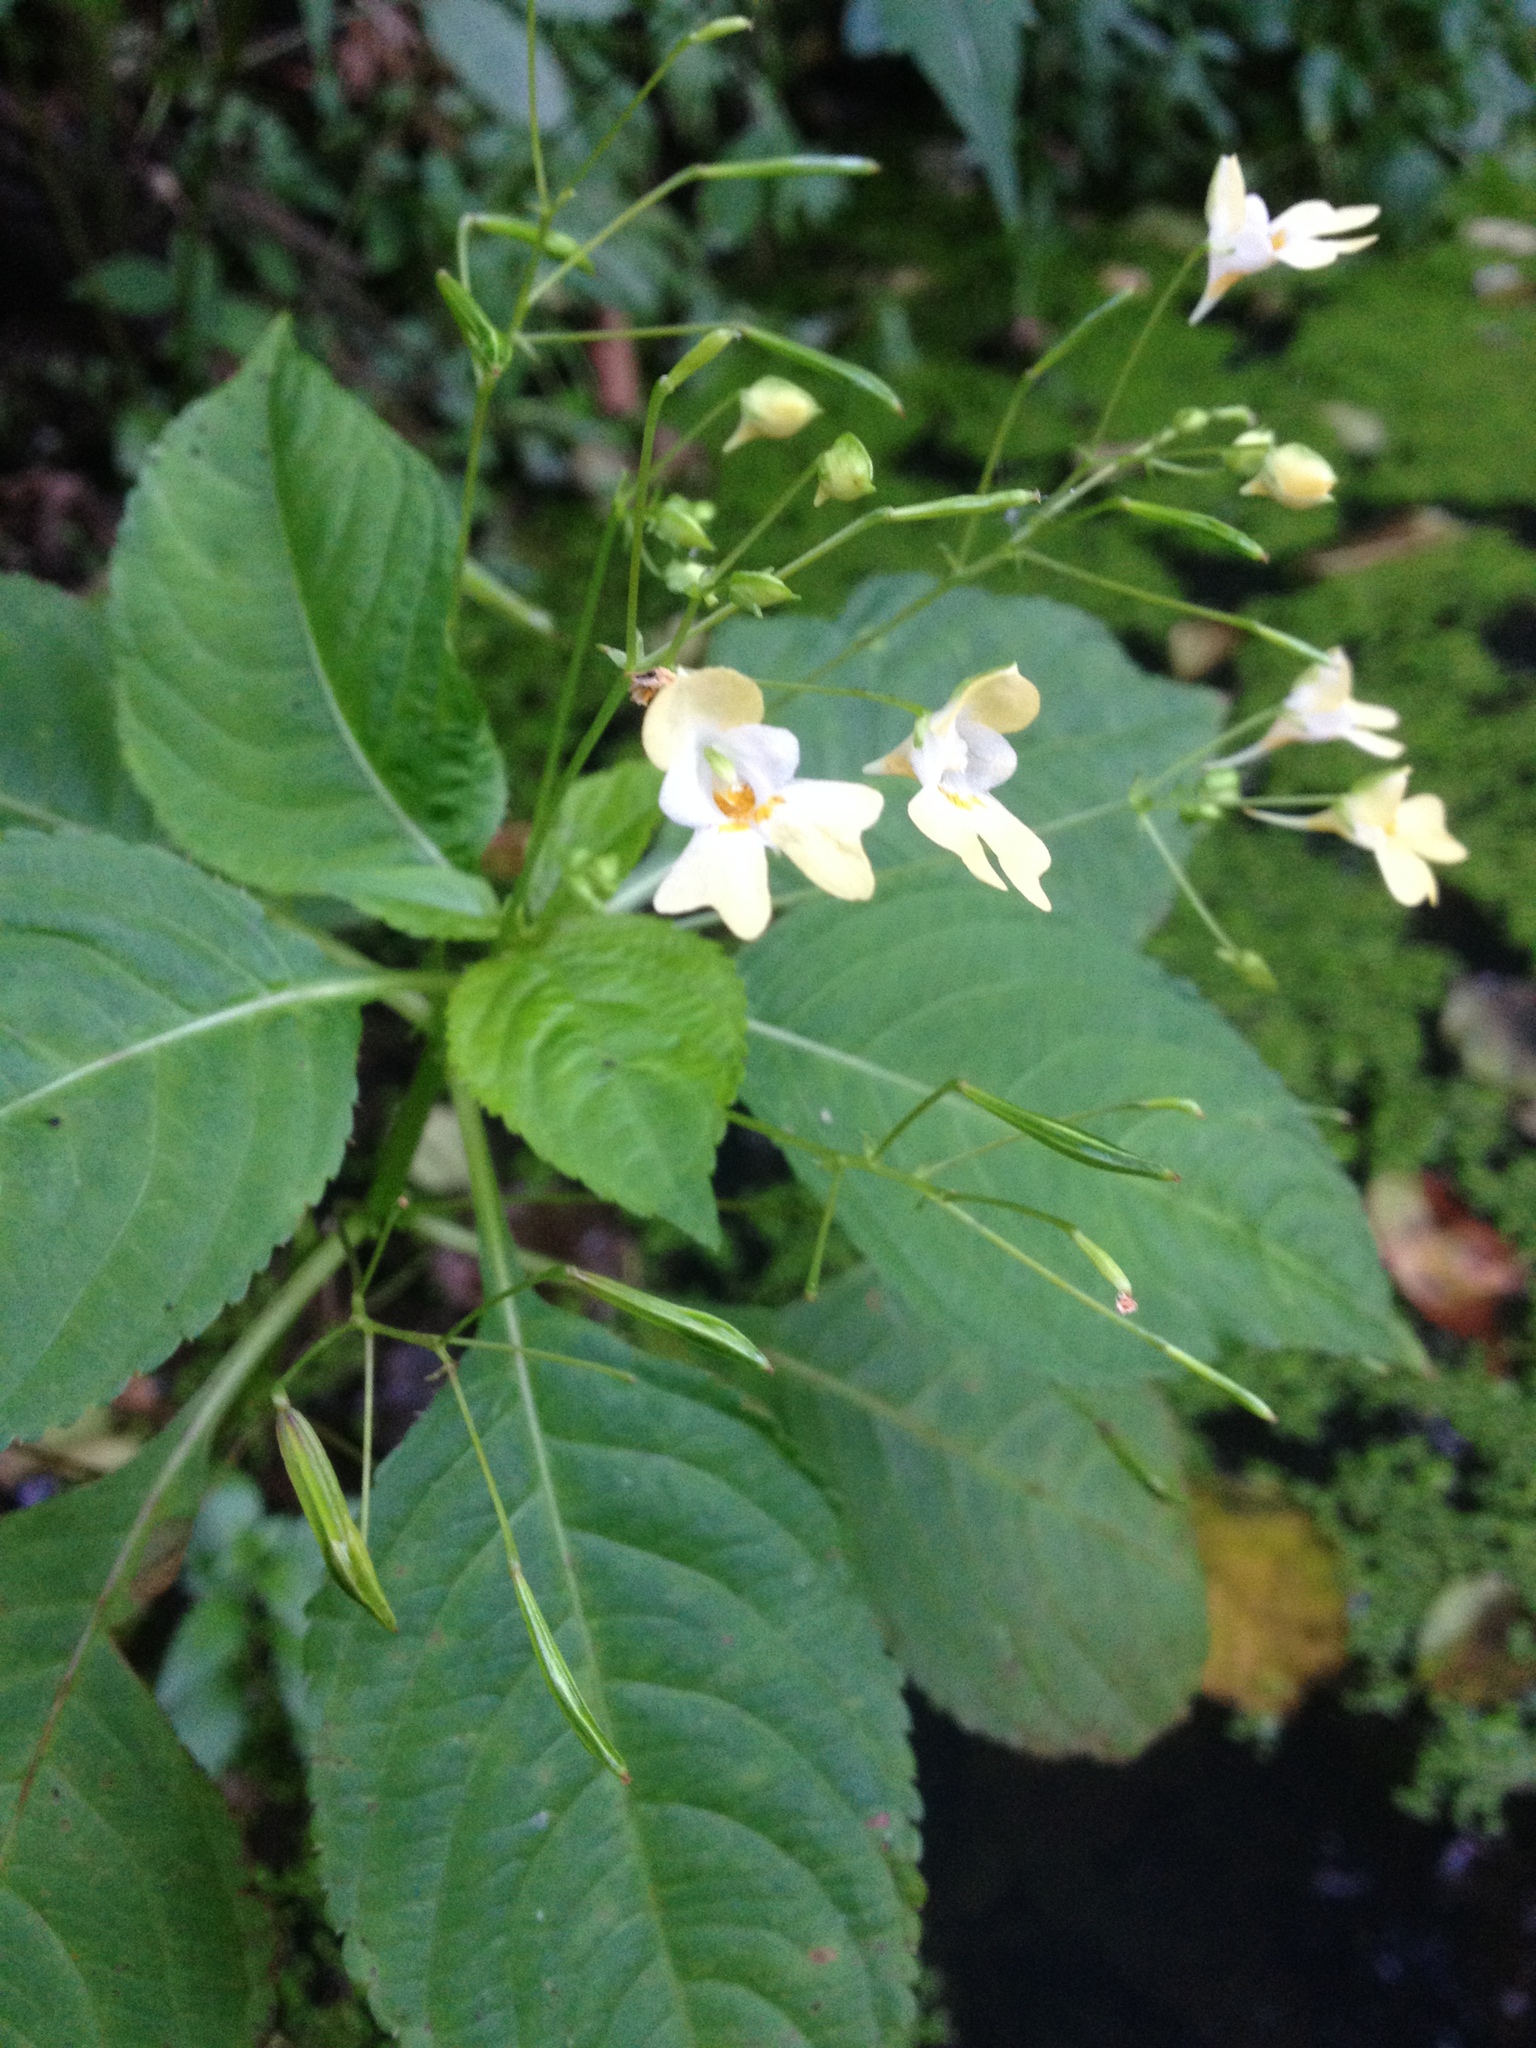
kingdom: Plantae
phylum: Tracheophyta
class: Magnoliopsida
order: Ericales
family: Balsaminaceae
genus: Impatiens
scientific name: Impatiens parviflora
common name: Small balsam
